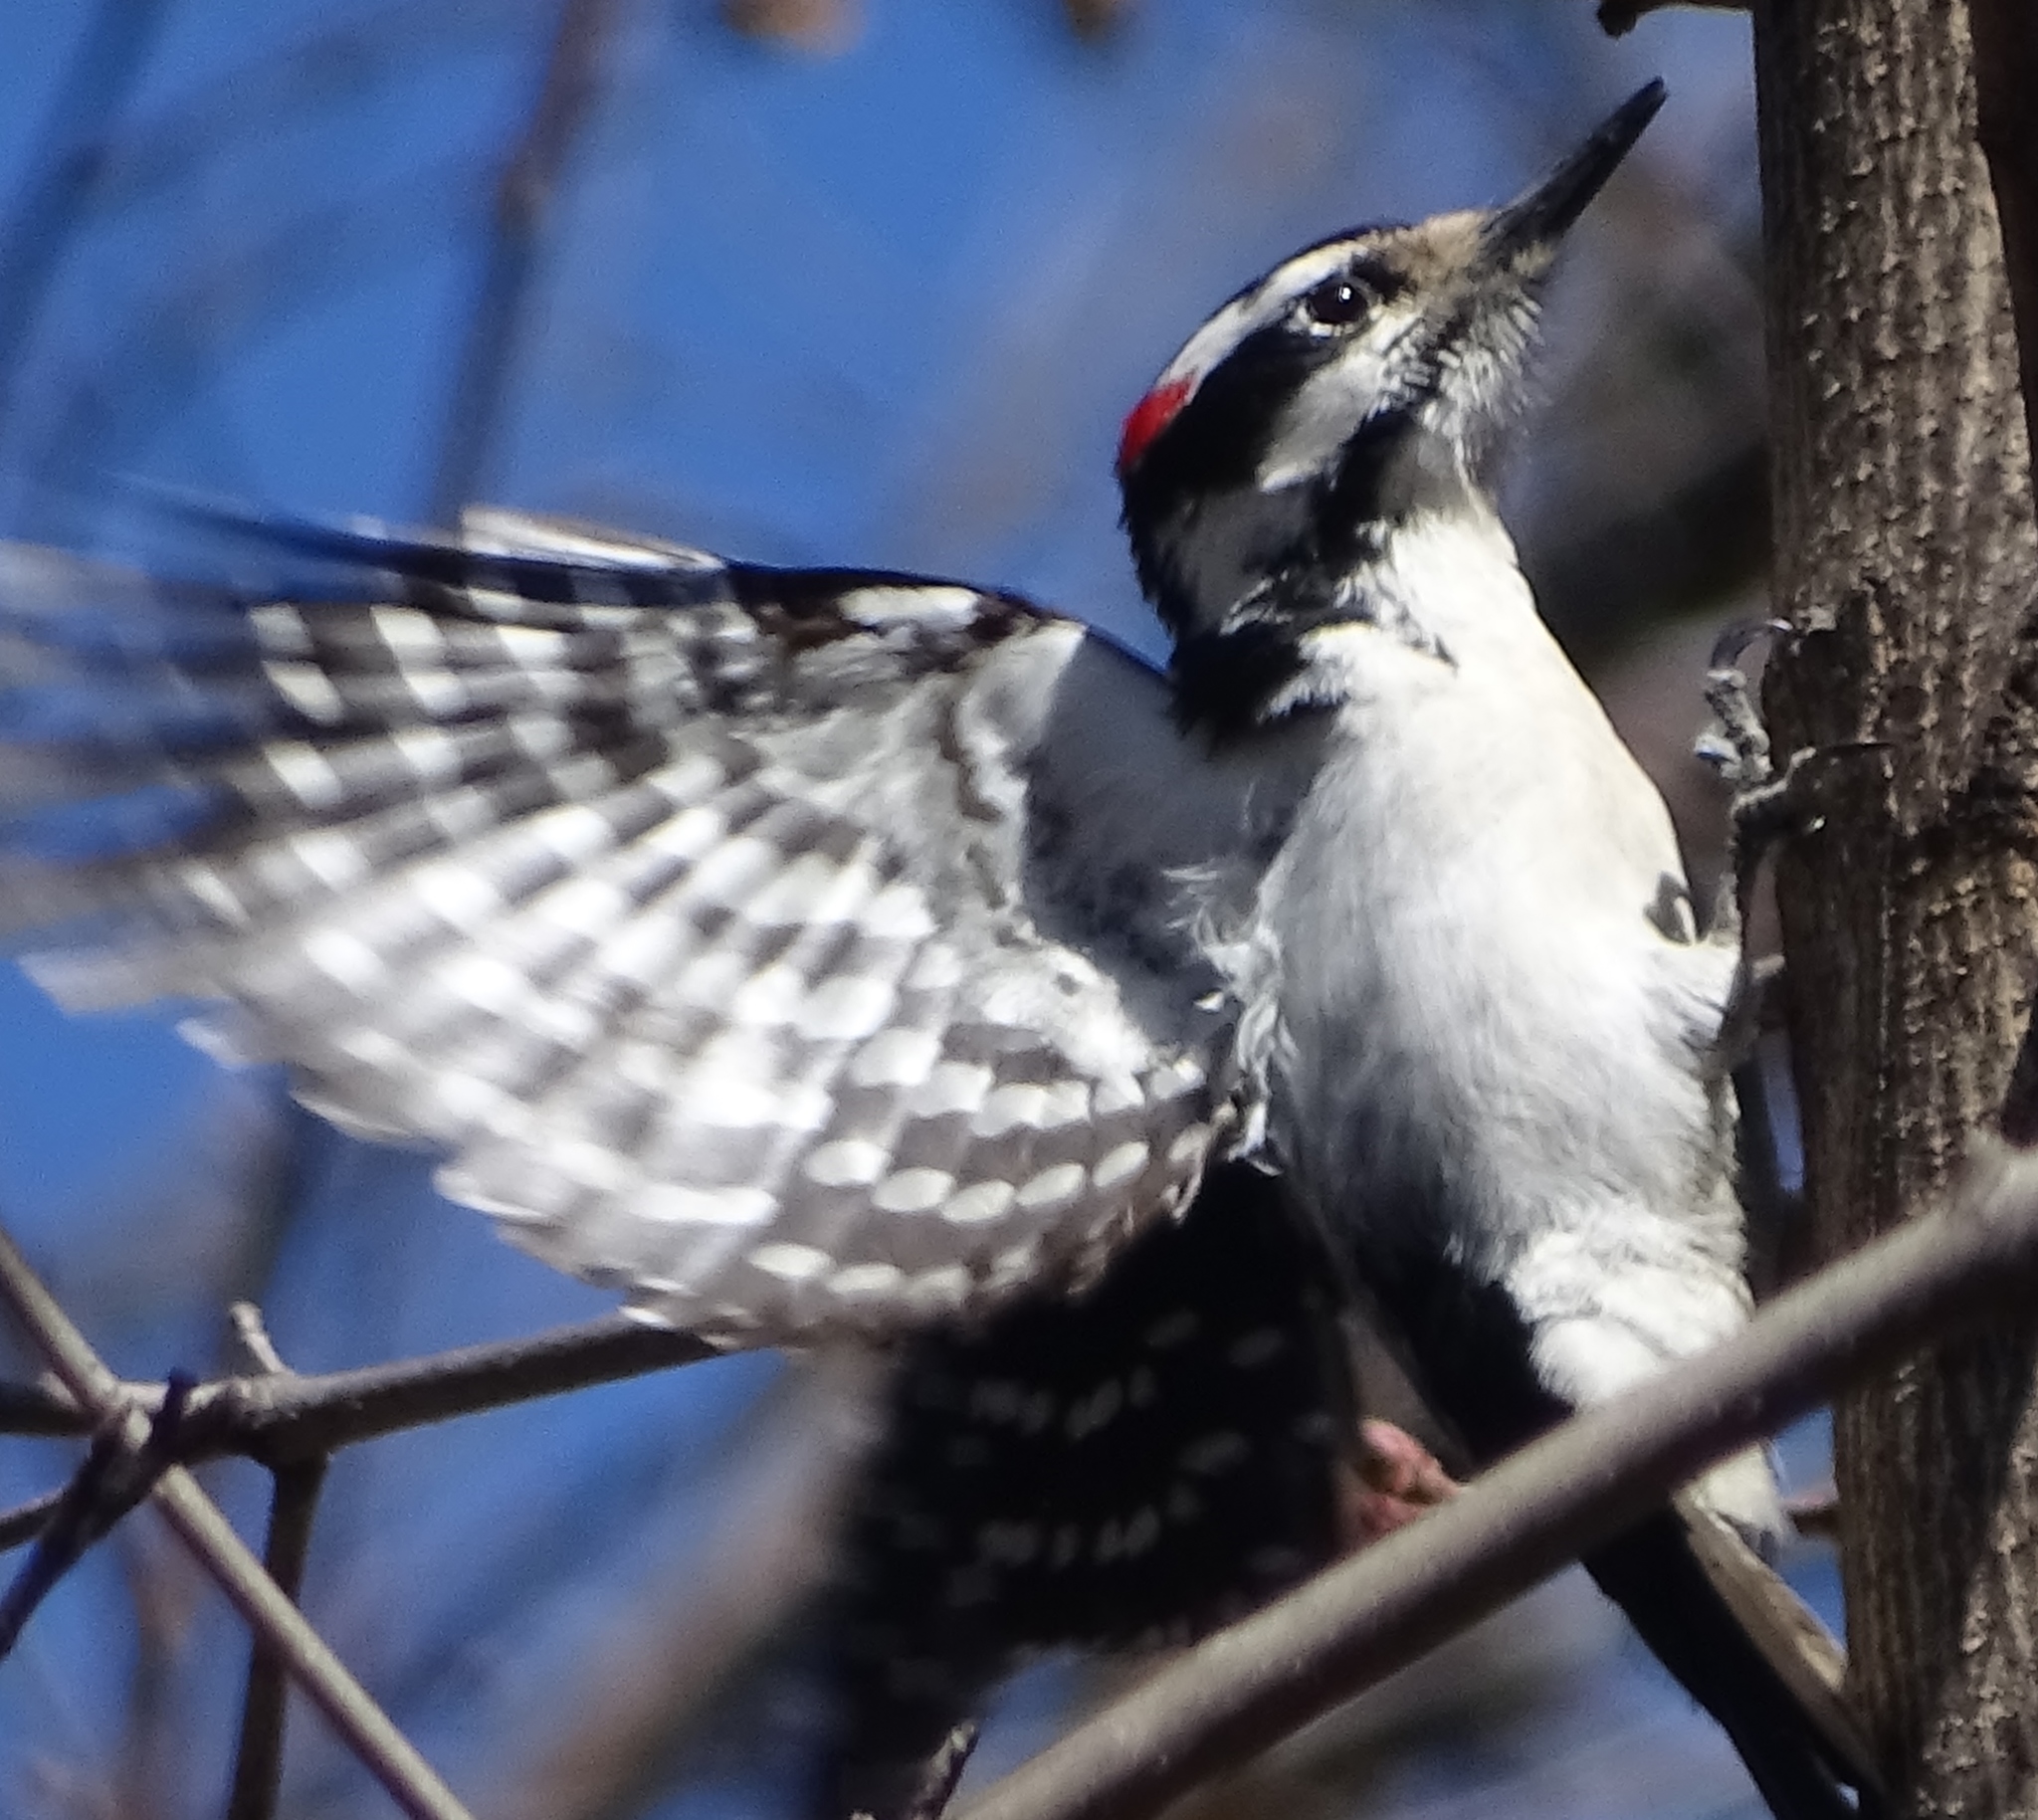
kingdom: Animalia
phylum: Chordata
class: Aves
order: Piciformes
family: Picidae
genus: Leuconotopicus
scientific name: Leuconotopicus villosus
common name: Hairy woodpecker
